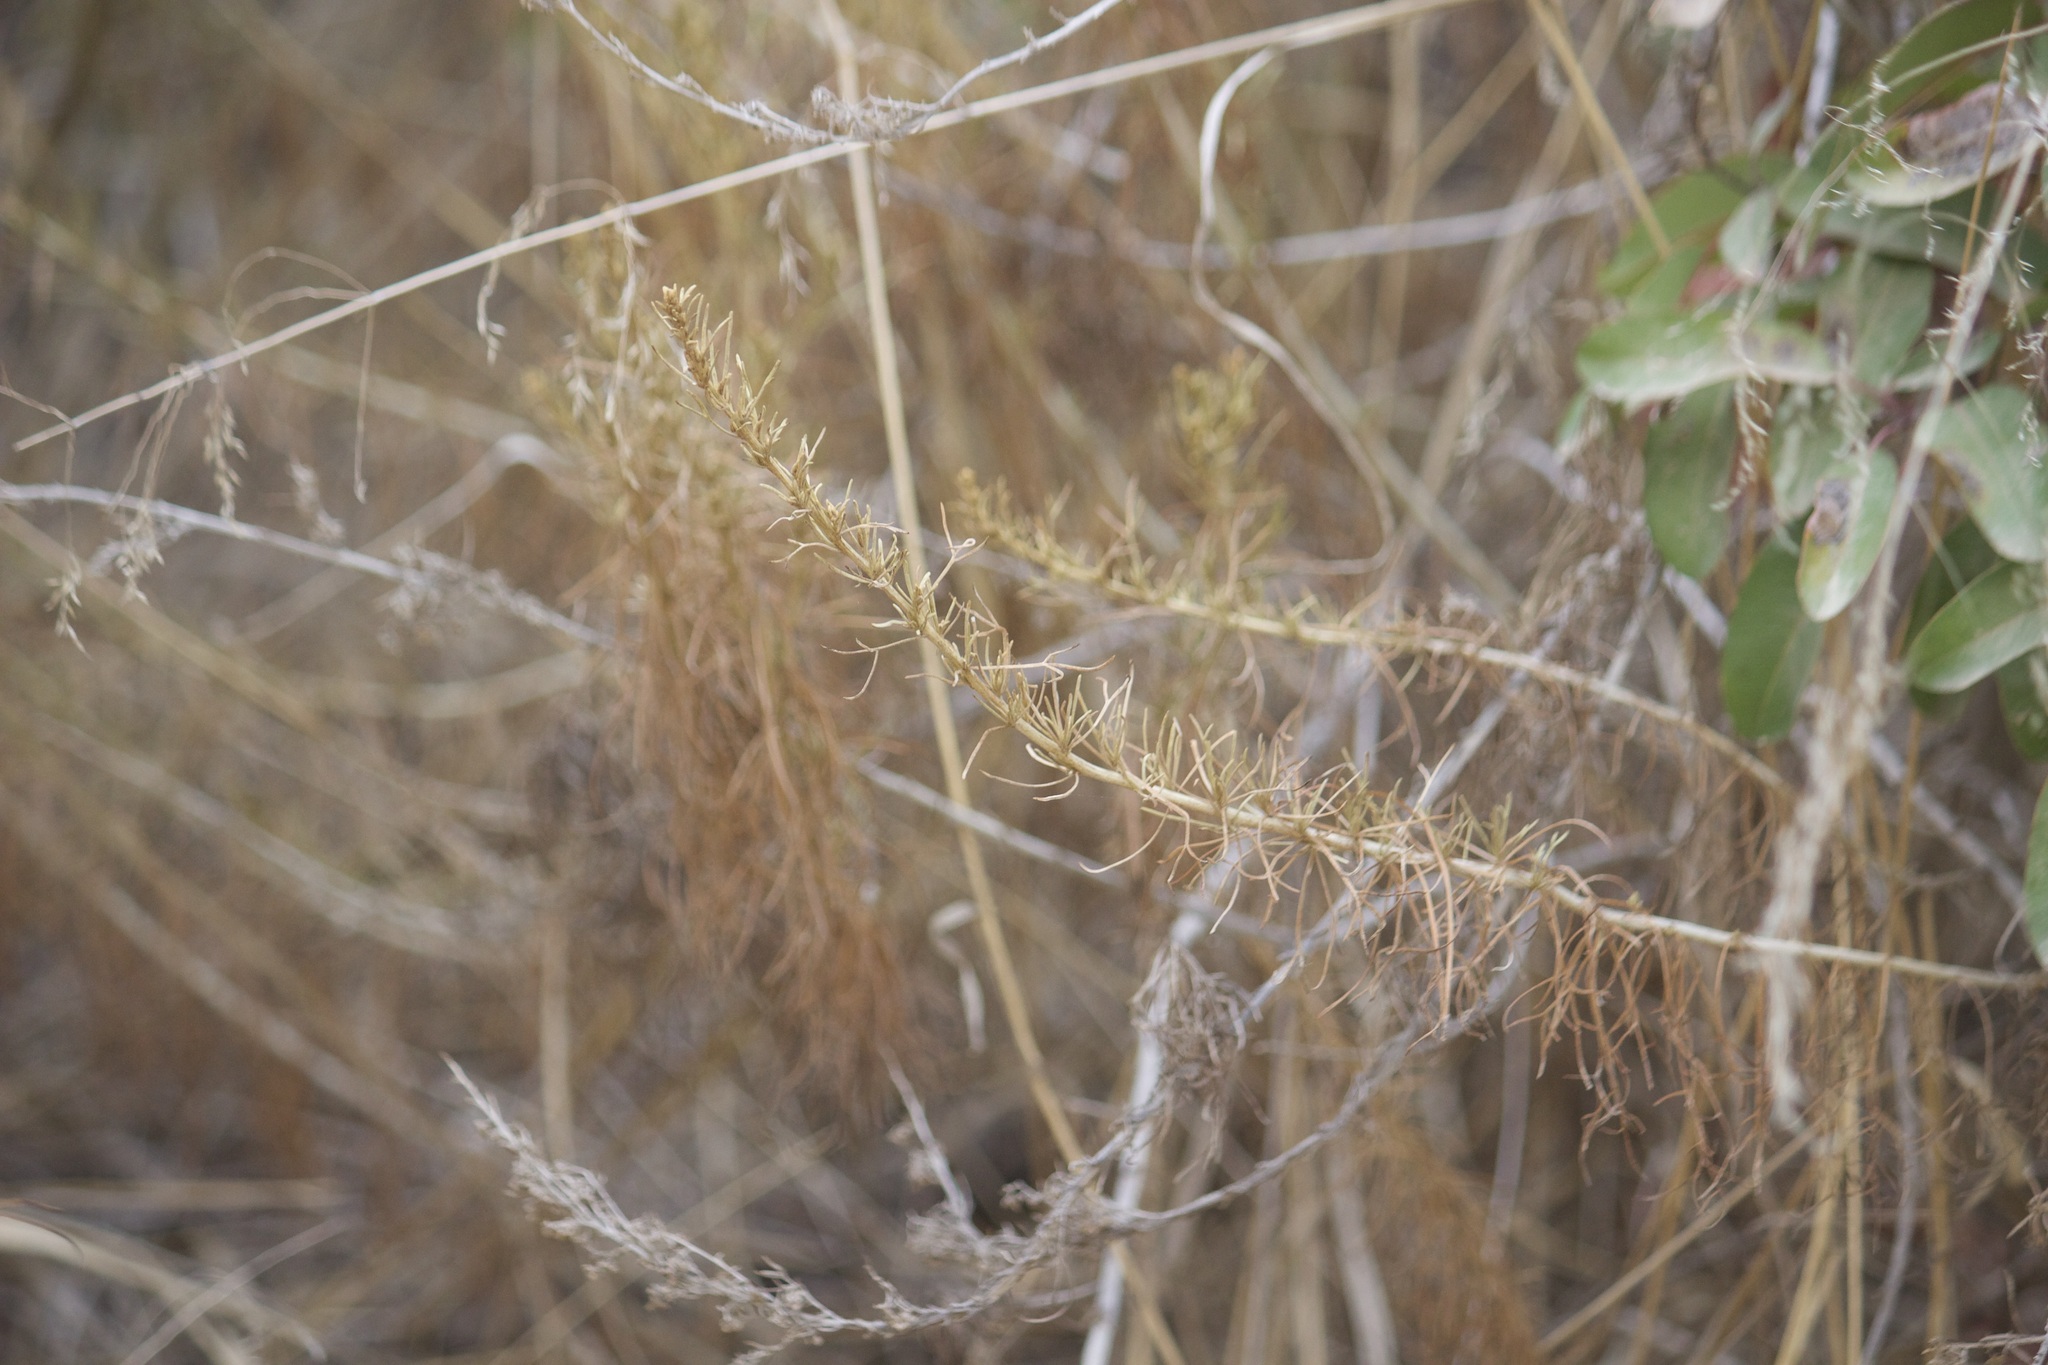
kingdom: Plantae
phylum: Tracheophyta
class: Magnoliopsida
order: Asterales
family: Asteraceae
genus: Artemisia
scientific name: Artemisia californica
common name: California sagebrush
